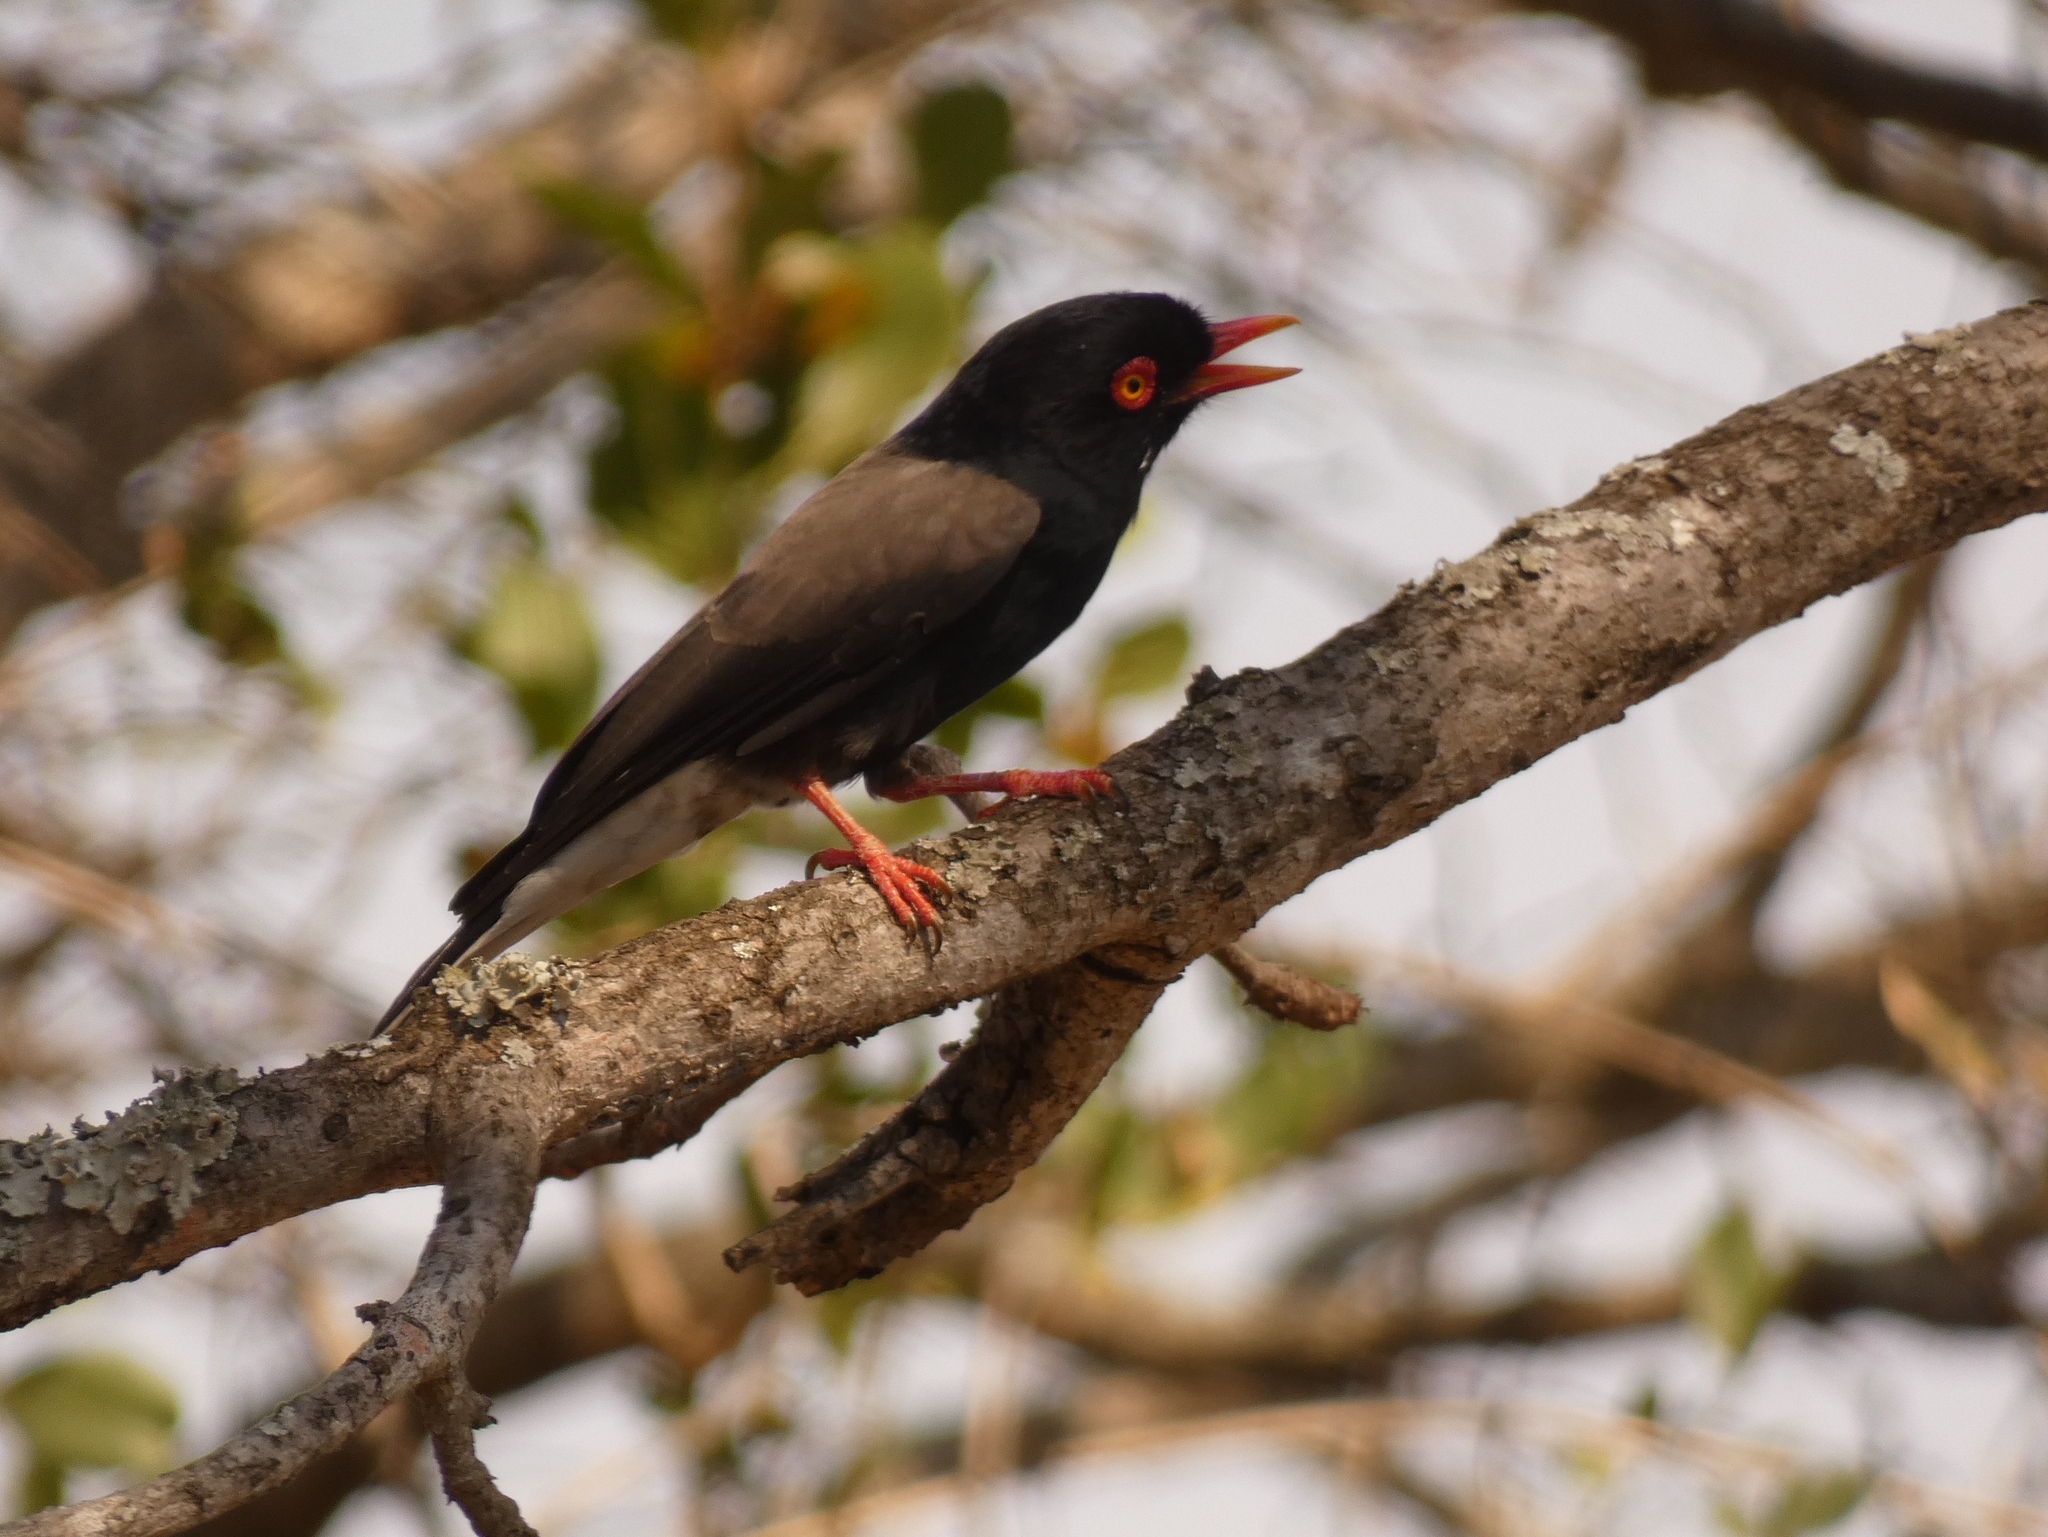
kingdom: Animalia
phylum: Chordata
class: Aves
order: Passeriformes
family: Prionopidae
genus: Prionops
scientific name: Prionops retzii
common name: Retz's helmetshrike
